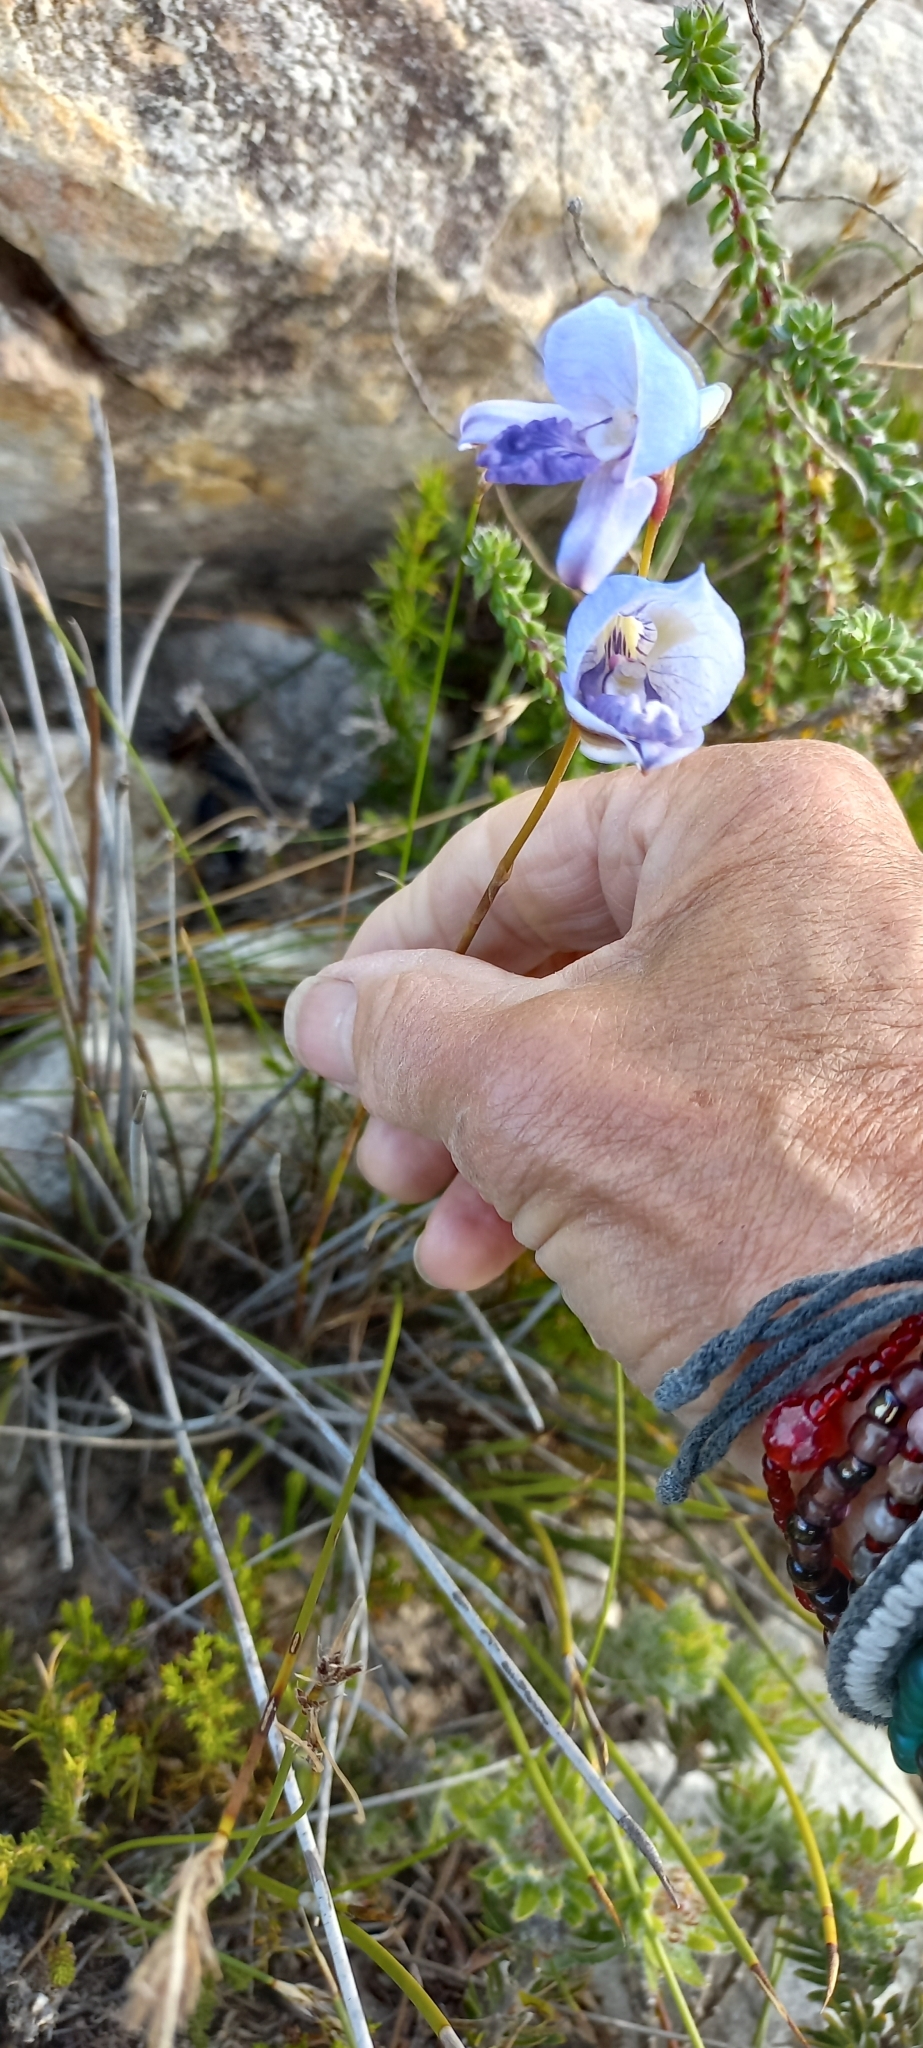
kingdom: Plantae
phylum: Tracheophyta
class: Liliopsida
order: Asparagales
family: Orchidaceae
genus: Disa
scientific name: Disa purpurascens
